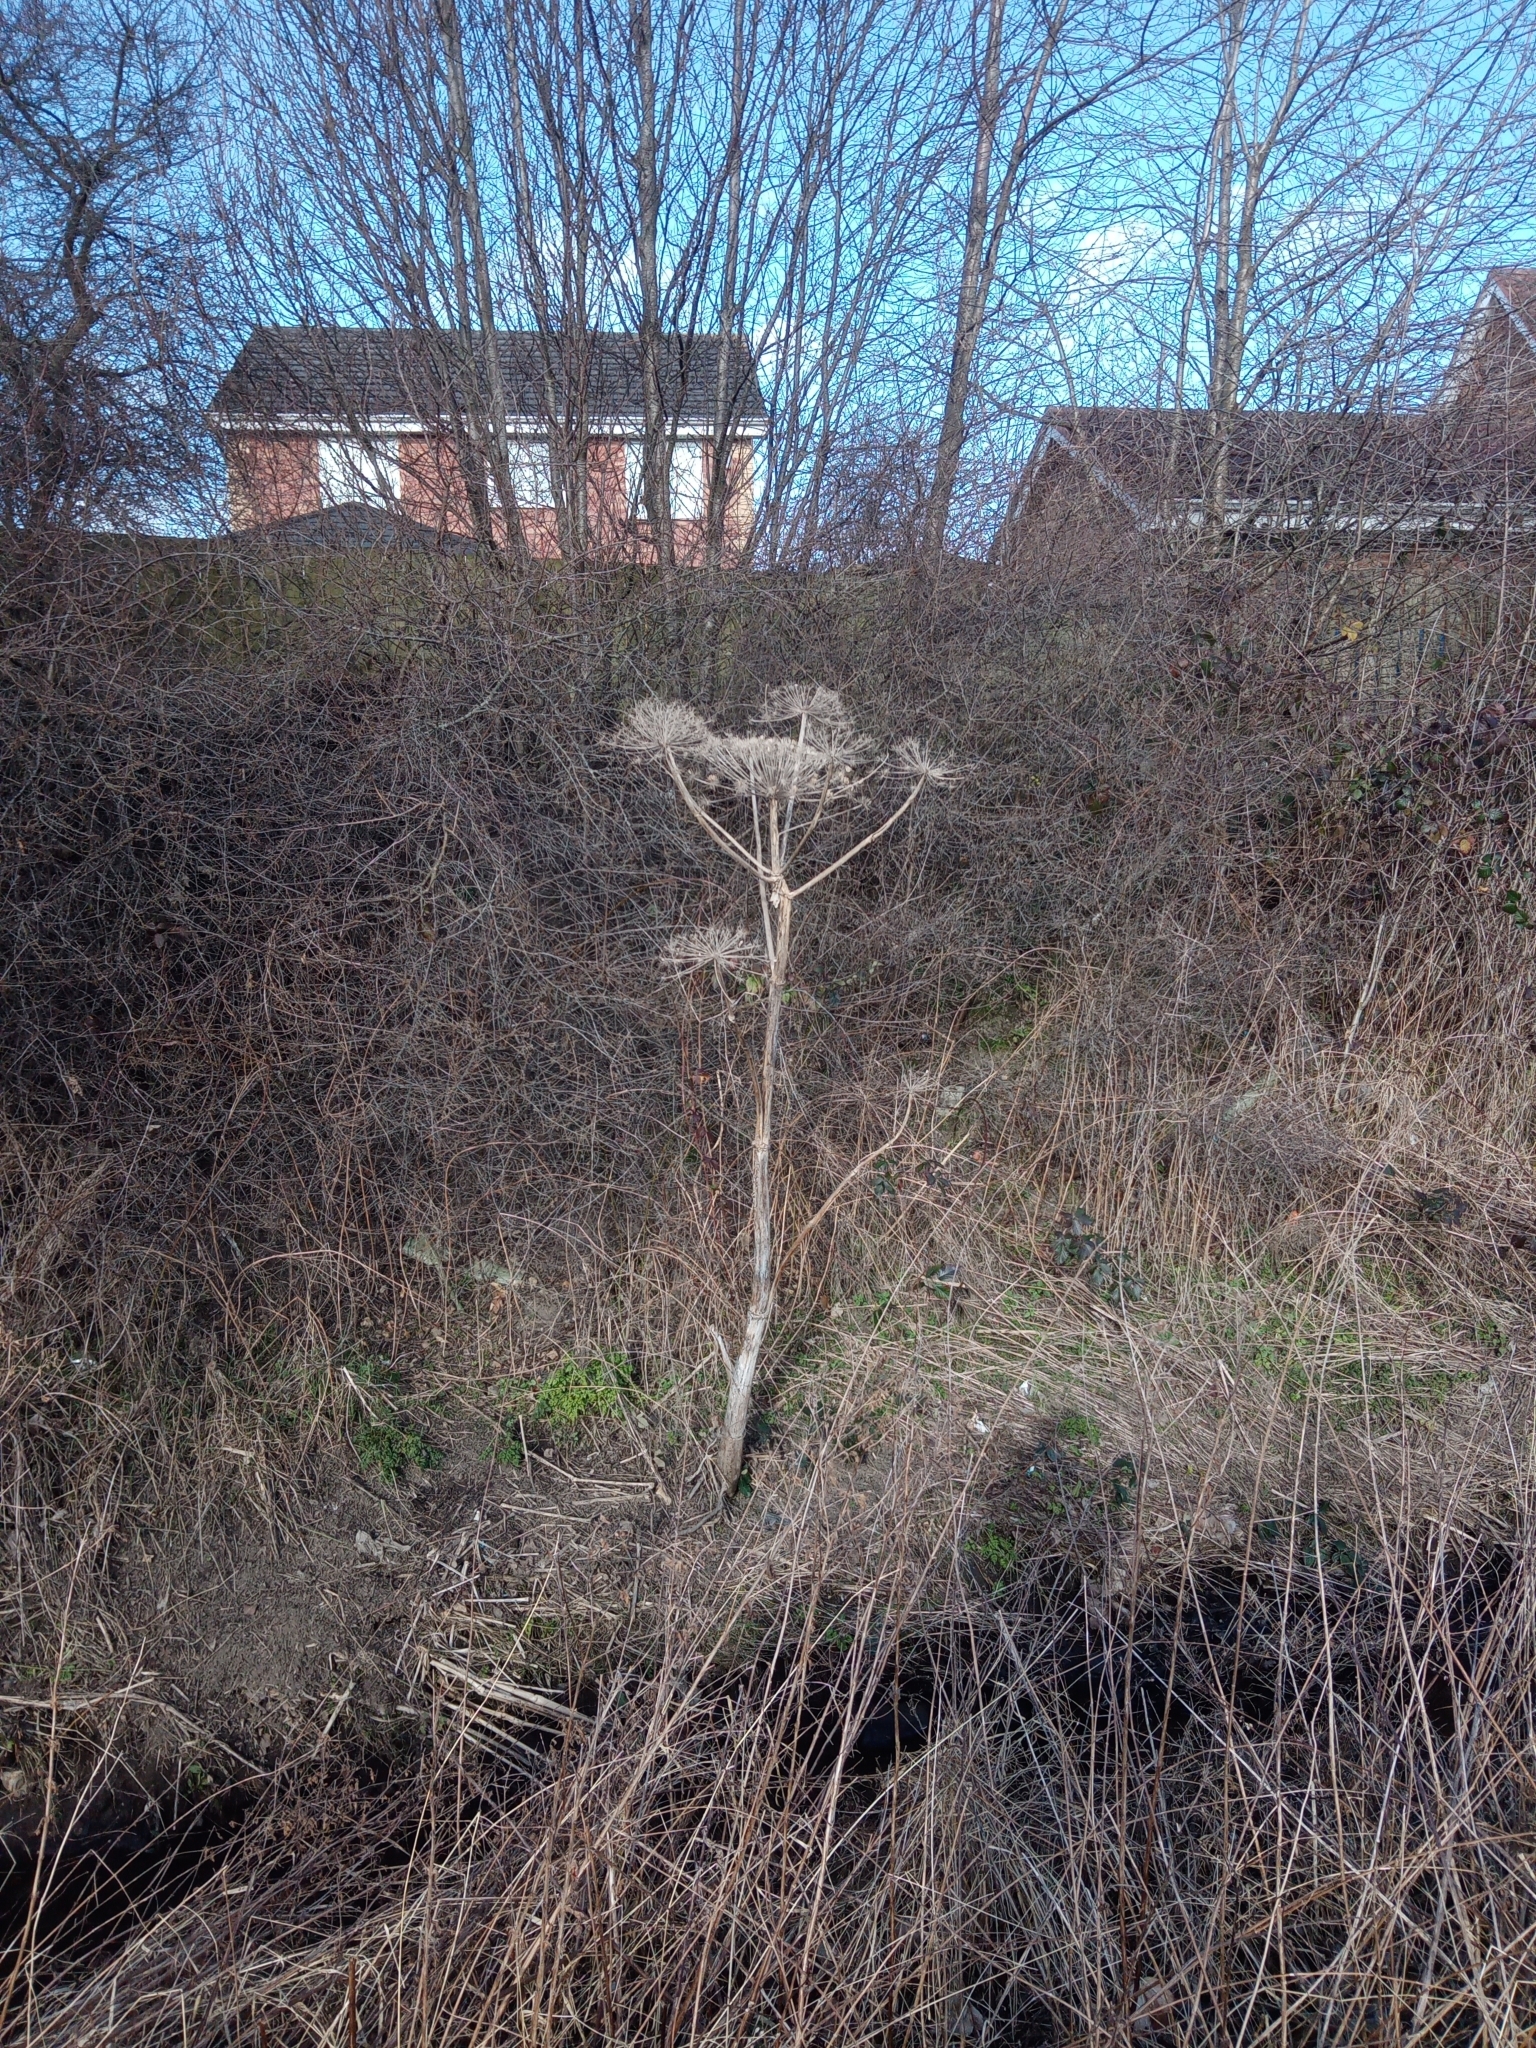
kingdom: Plantae
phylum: Tracheophyta
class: Magnoliopsida
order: Apiales
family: Apiaceae
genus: Heracleum
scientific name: Heracleum mantegazzianum
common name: Giant hogweed
